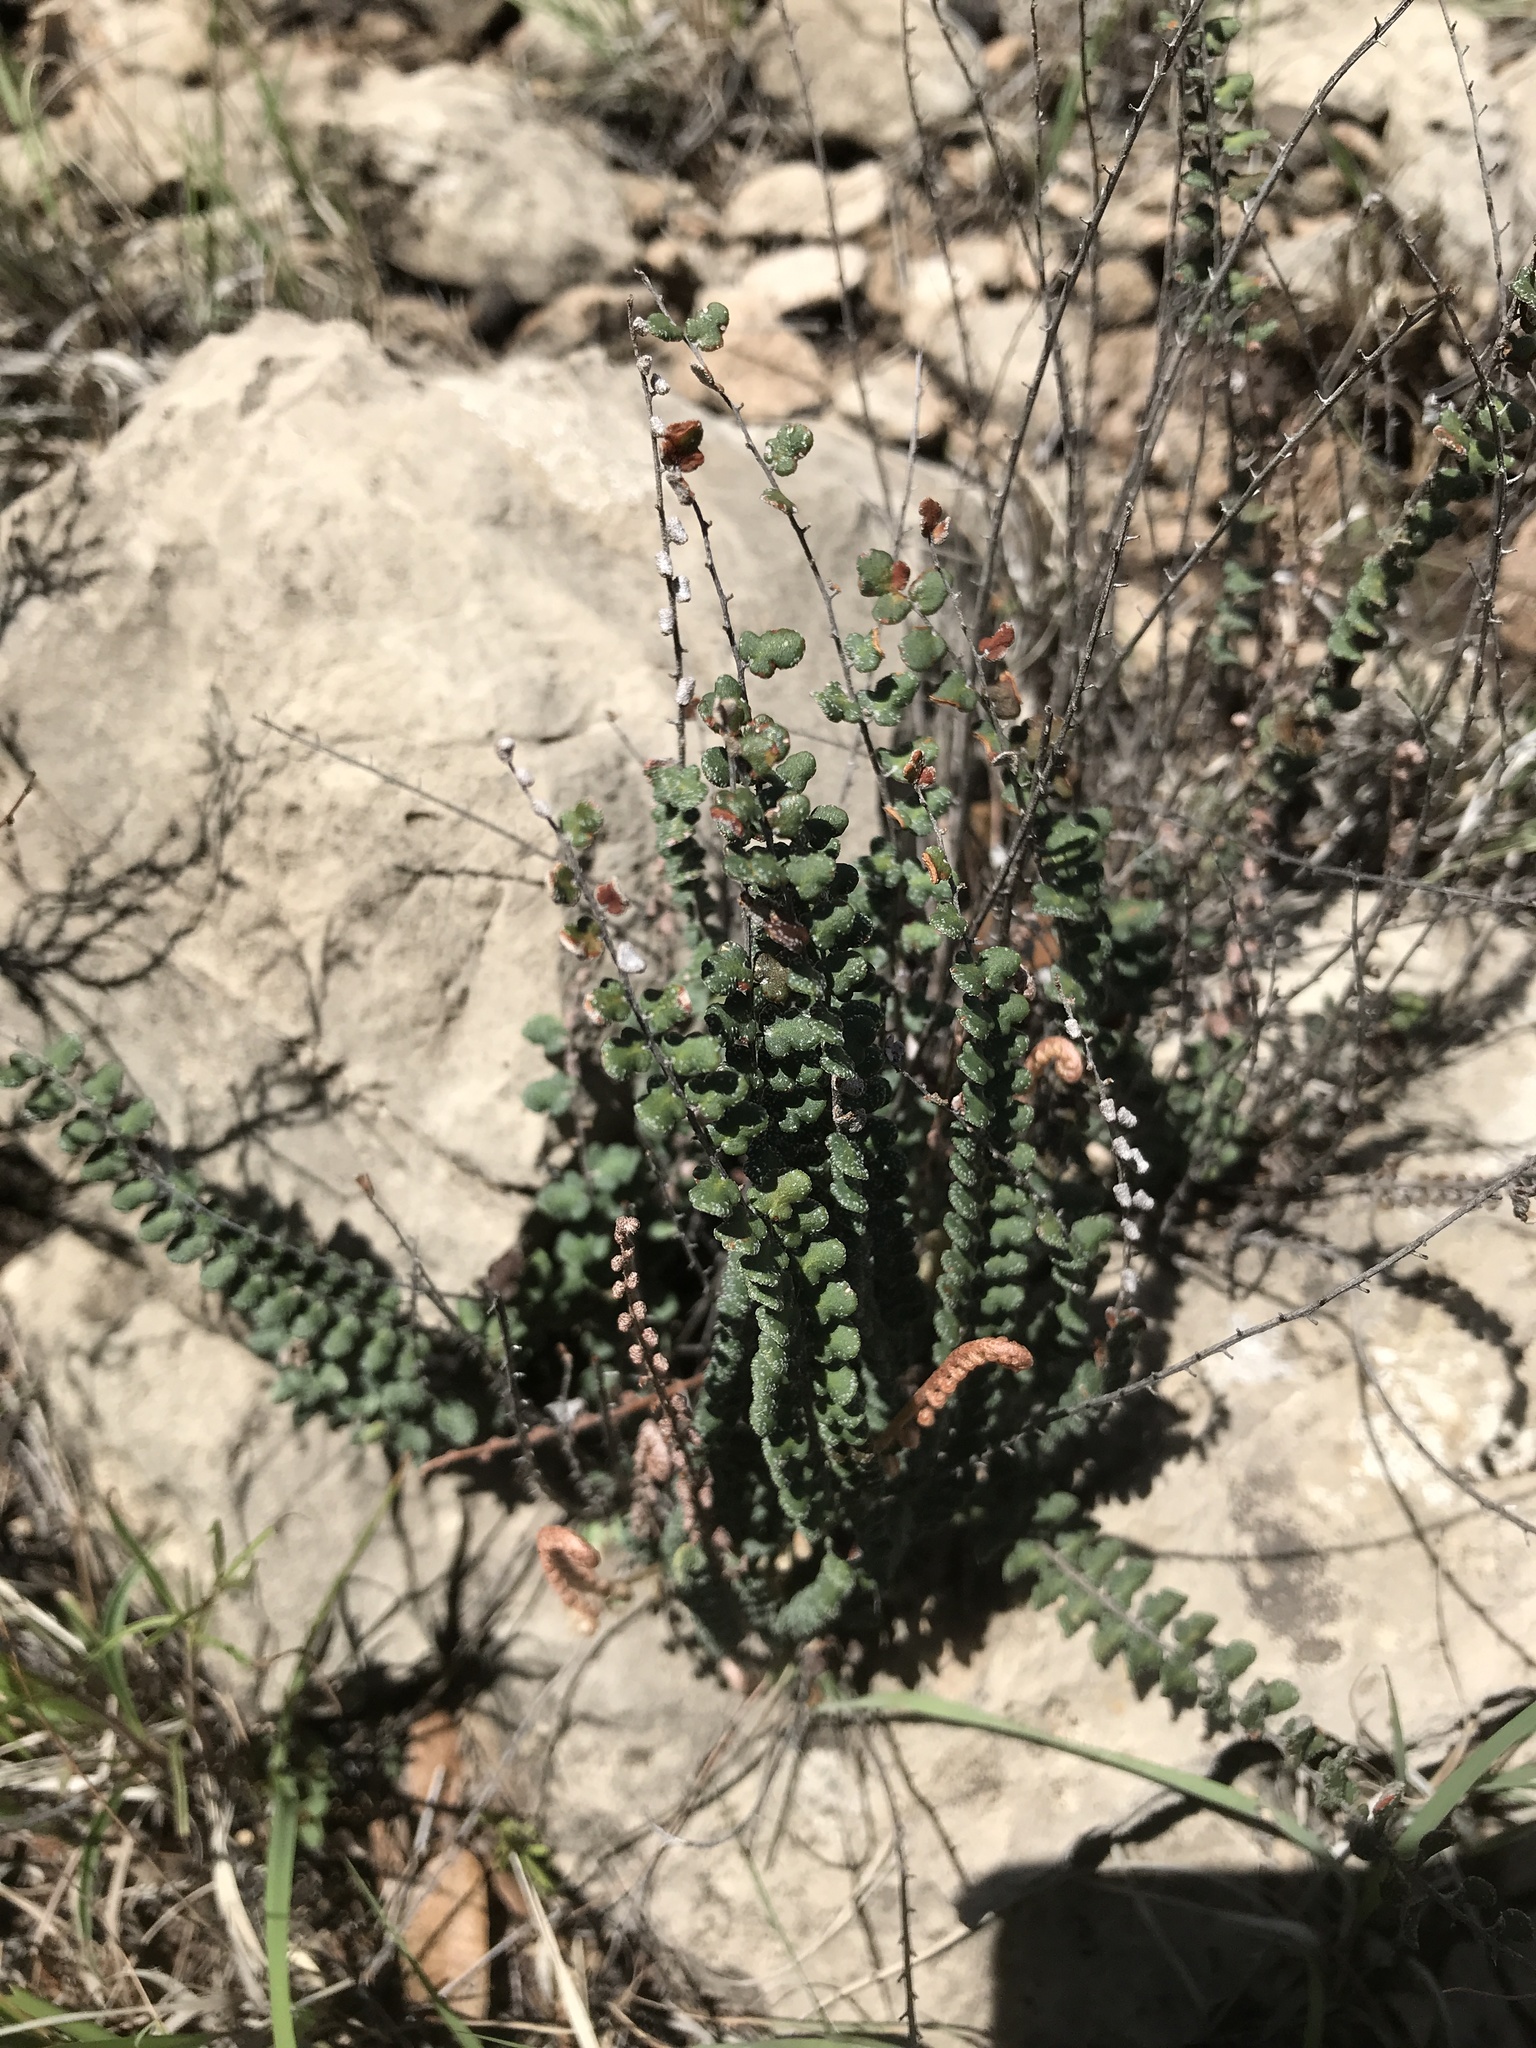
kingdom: Plantae
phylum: Tracheophyta
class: Polypodiopsida
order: Polypodiales
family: Pteridaceae
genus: Astrolepis
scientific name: Astrolepis cochisensis
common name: Scaly cloak fern
